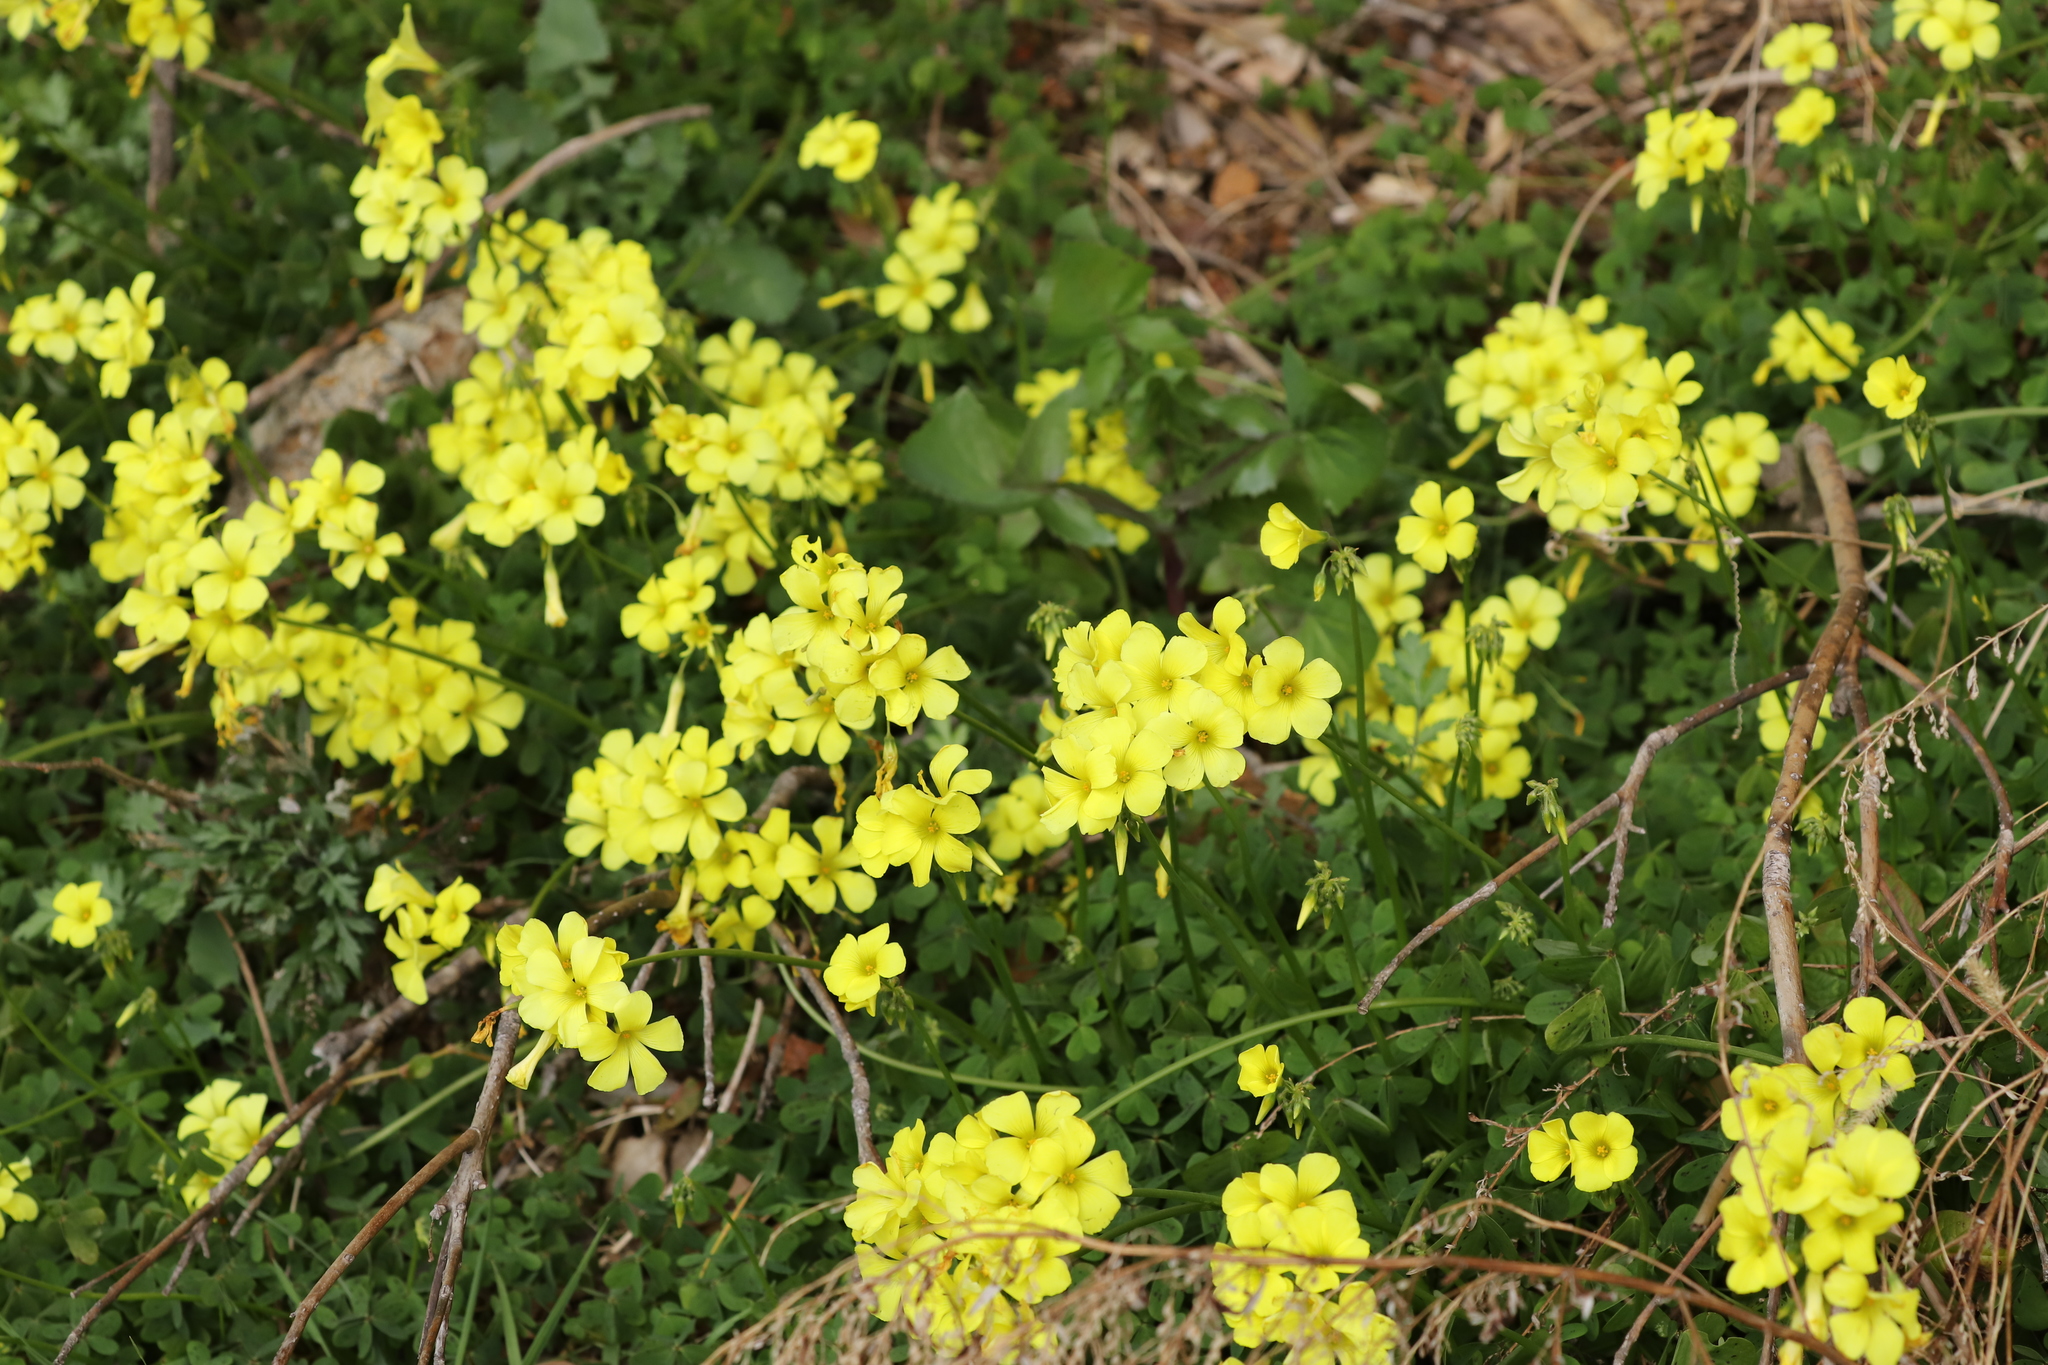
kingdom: Plantae
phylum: Tracheophyta
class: Magnoliopsida
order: Oxalidales
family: Oxalidaceae
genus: Oxalis
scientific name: Oxalis pes-caprae
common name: Bermuda-buttercup
